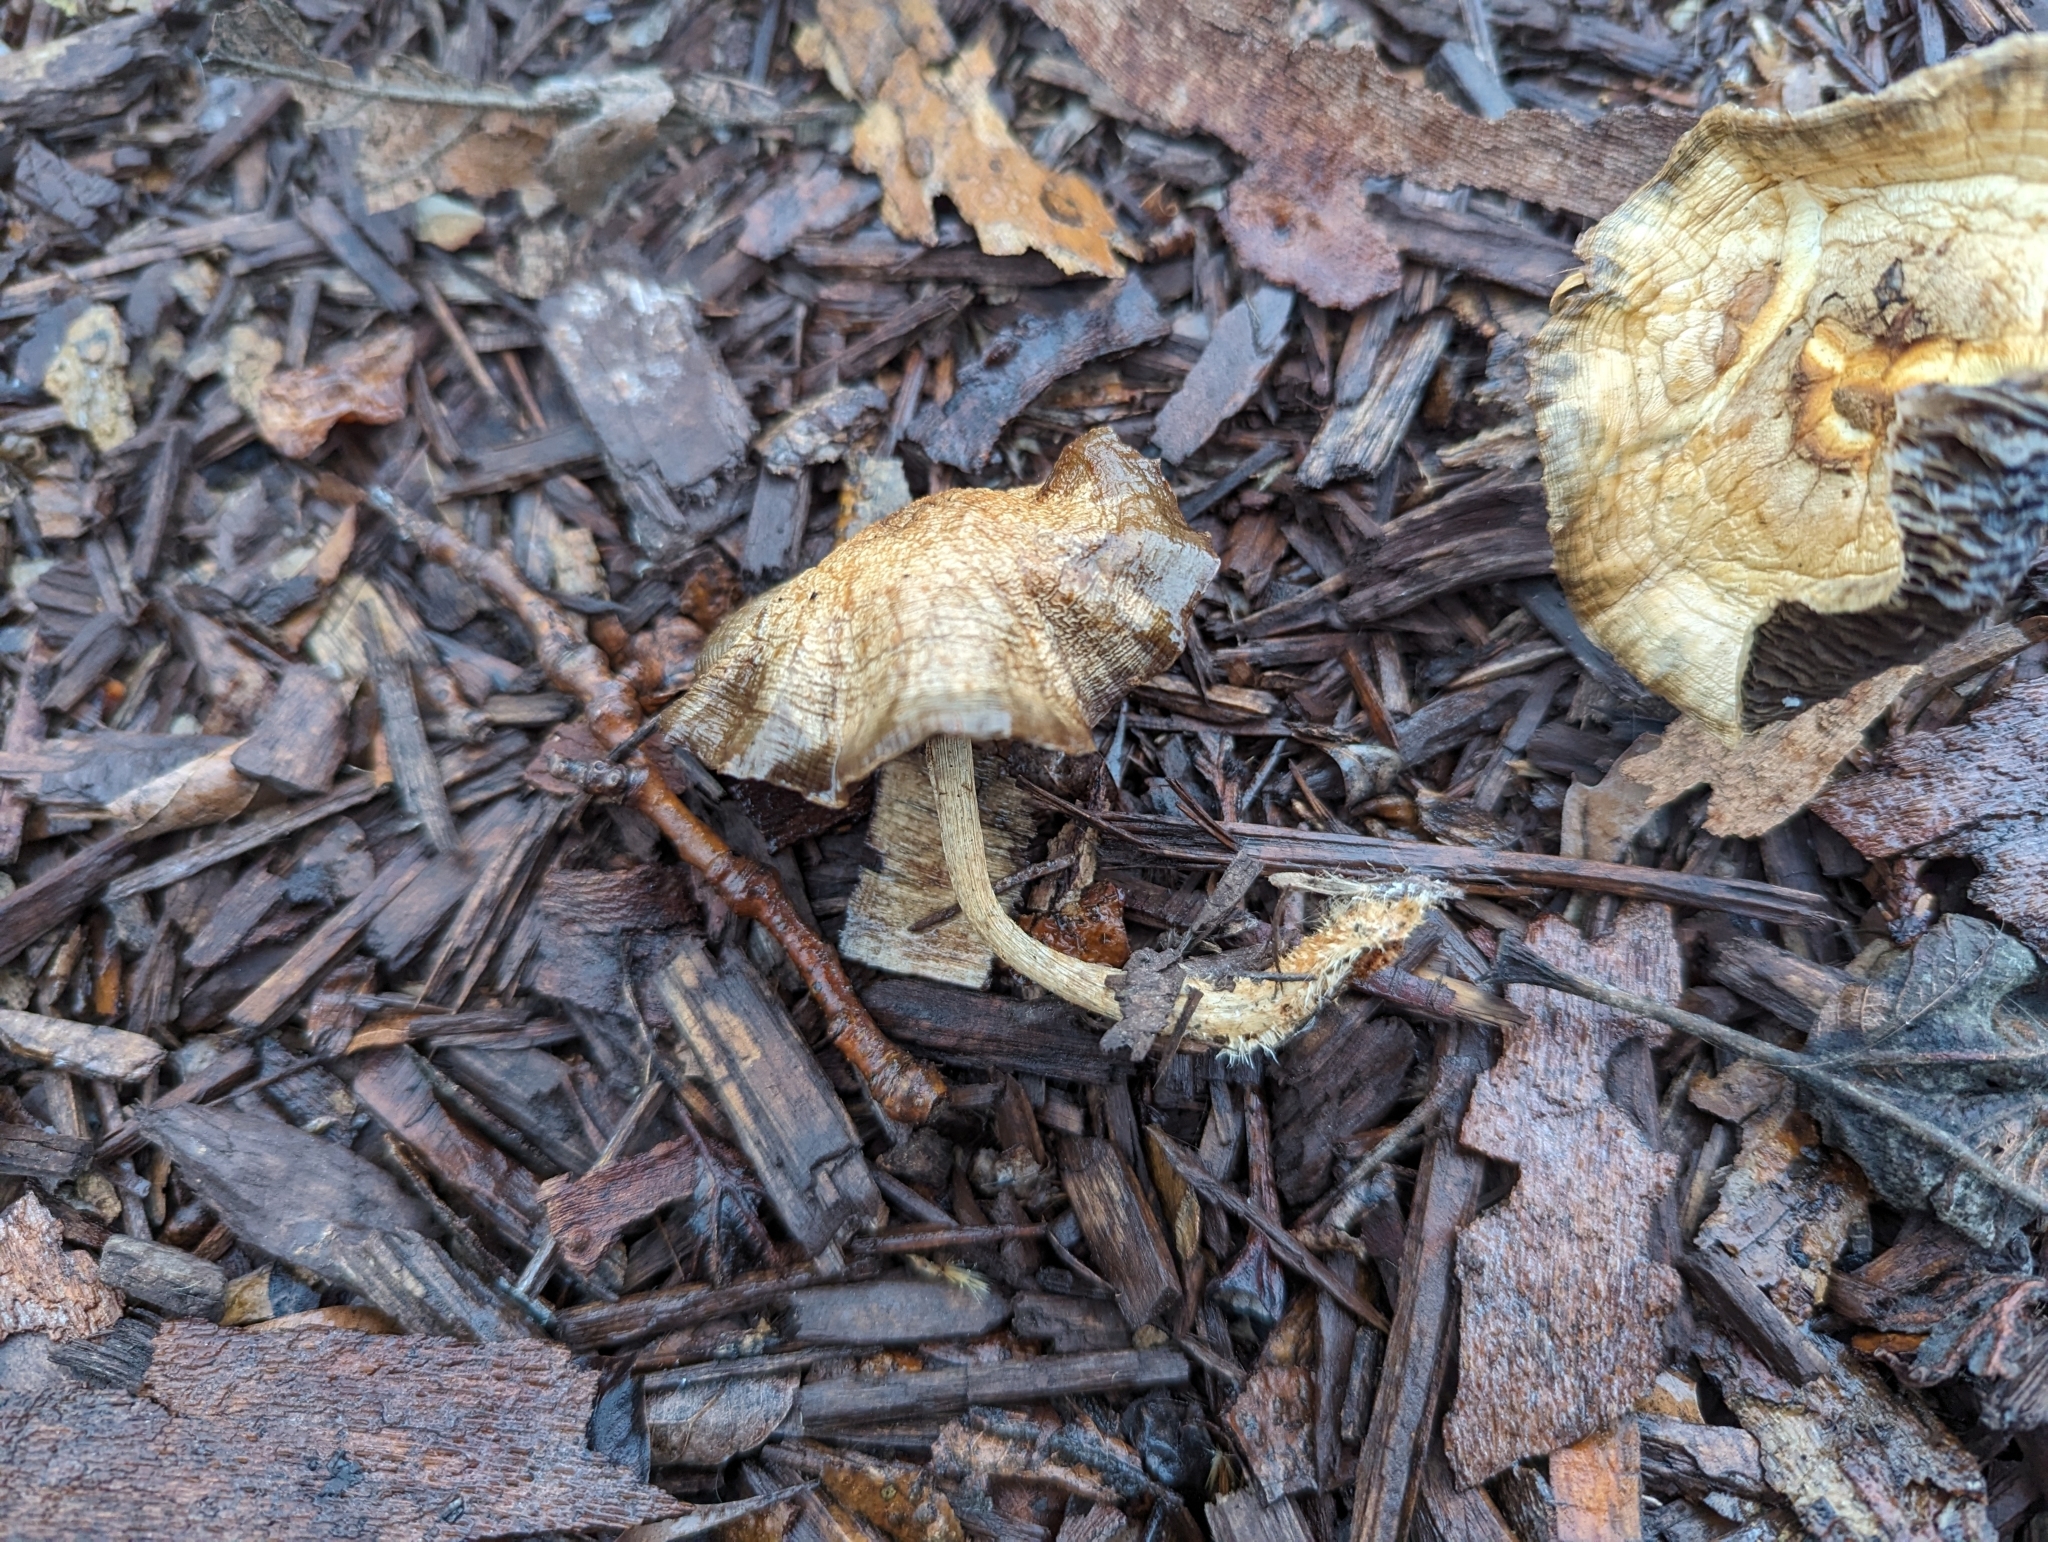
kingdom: Fungi
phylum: Basidiomycota
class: Agaricomycetes
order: Agaricales
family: Strophariaceae
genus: Leratiomyces
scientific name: Leratiomyces percevalii
